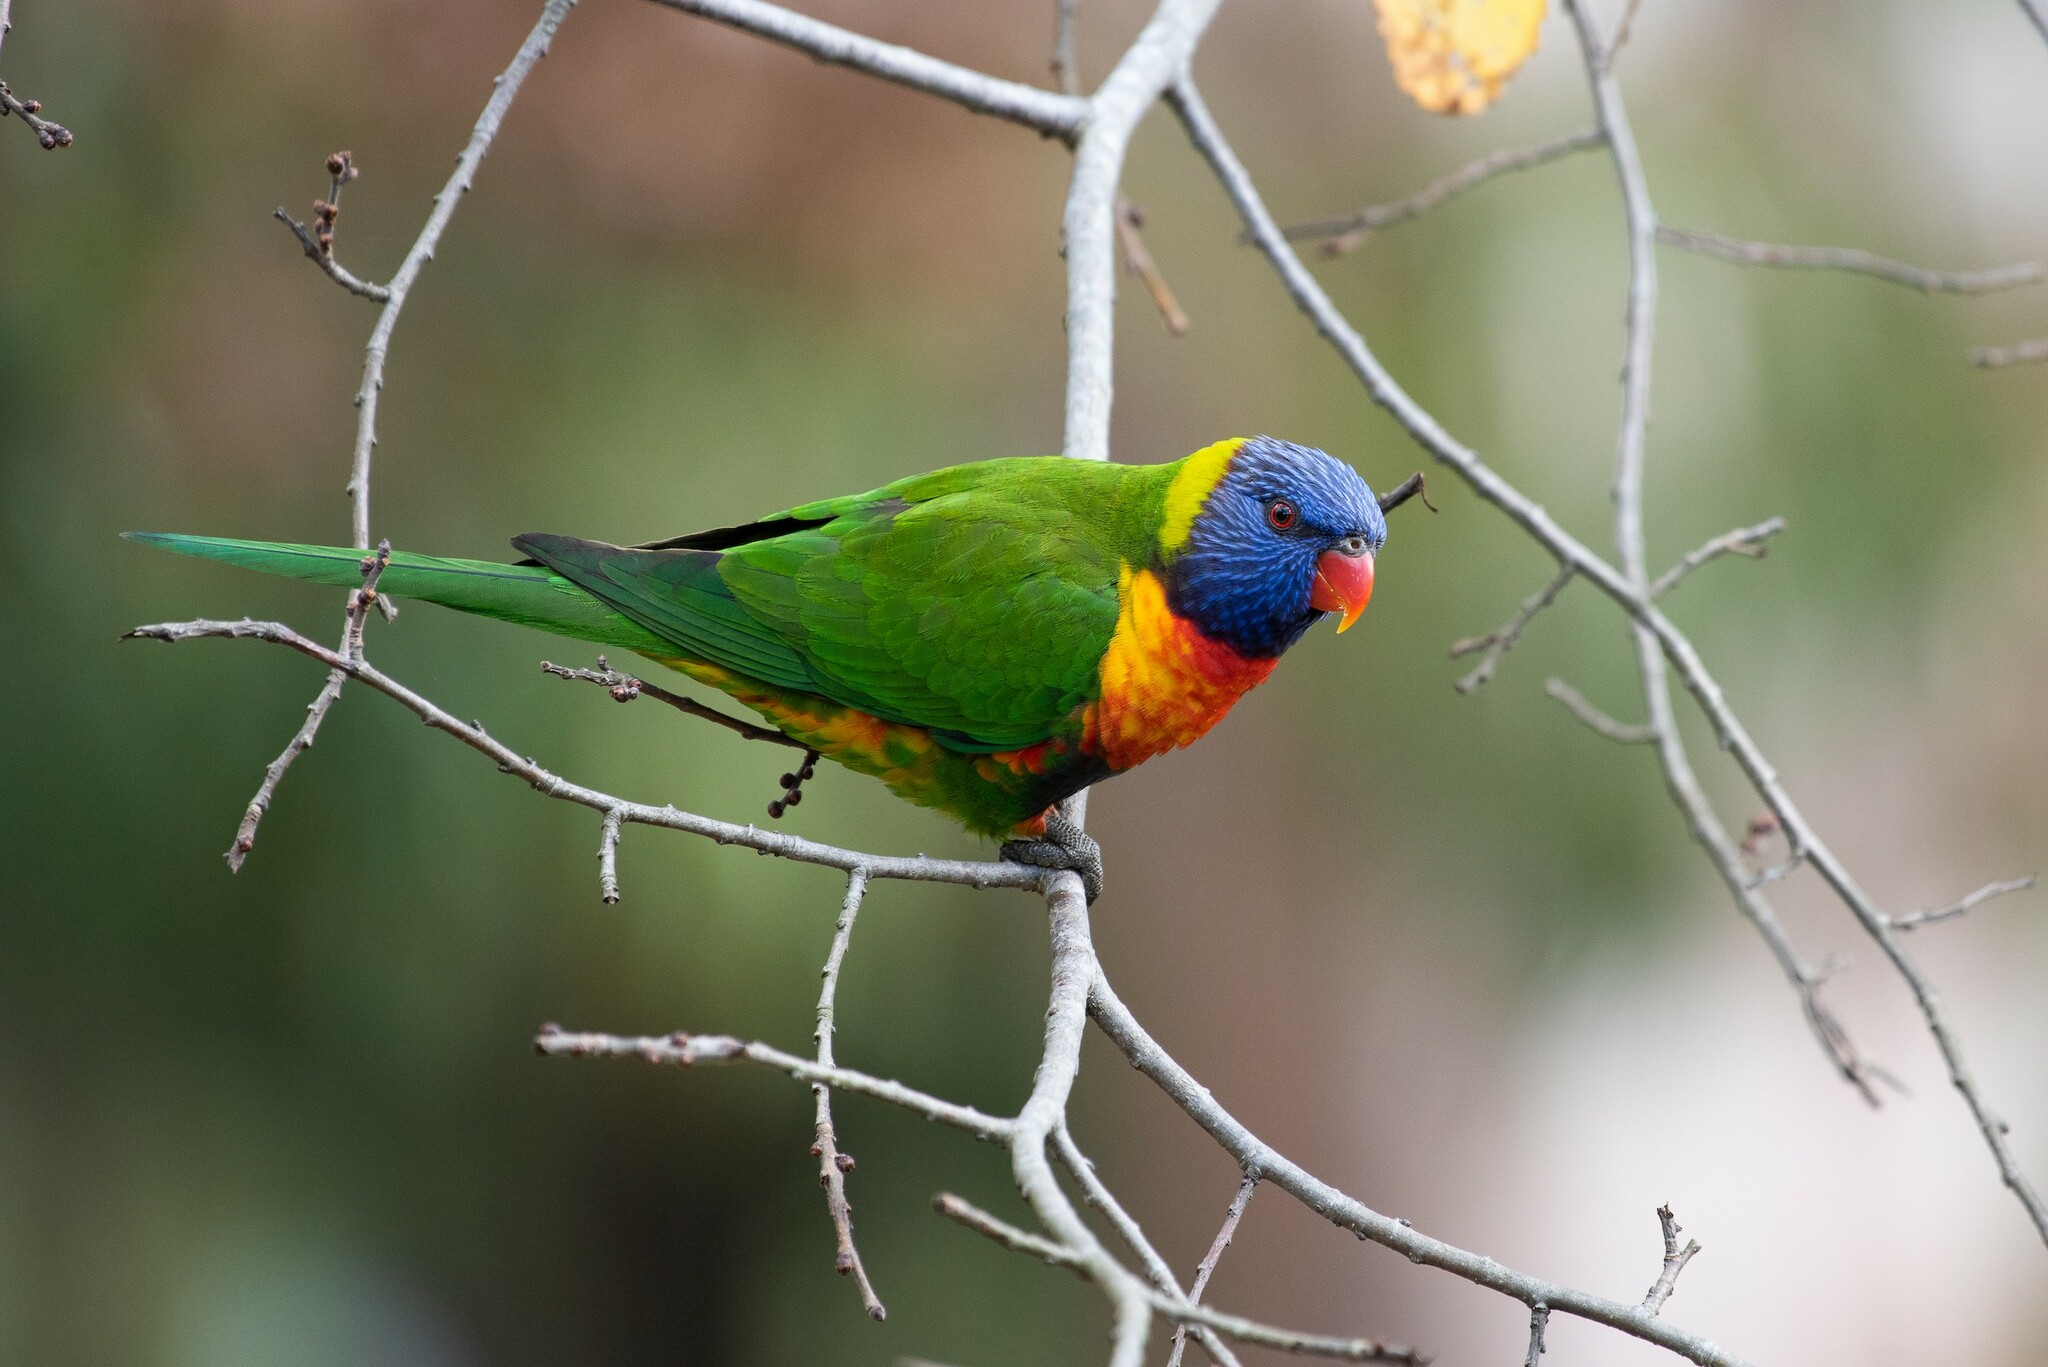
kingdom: Animalia
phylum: Chordata
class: Aves
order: Psittaciformes
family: Psittacidae
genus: Trichoglossus
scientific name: Trichoglossus haematodus
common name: Coconut lorikeet
